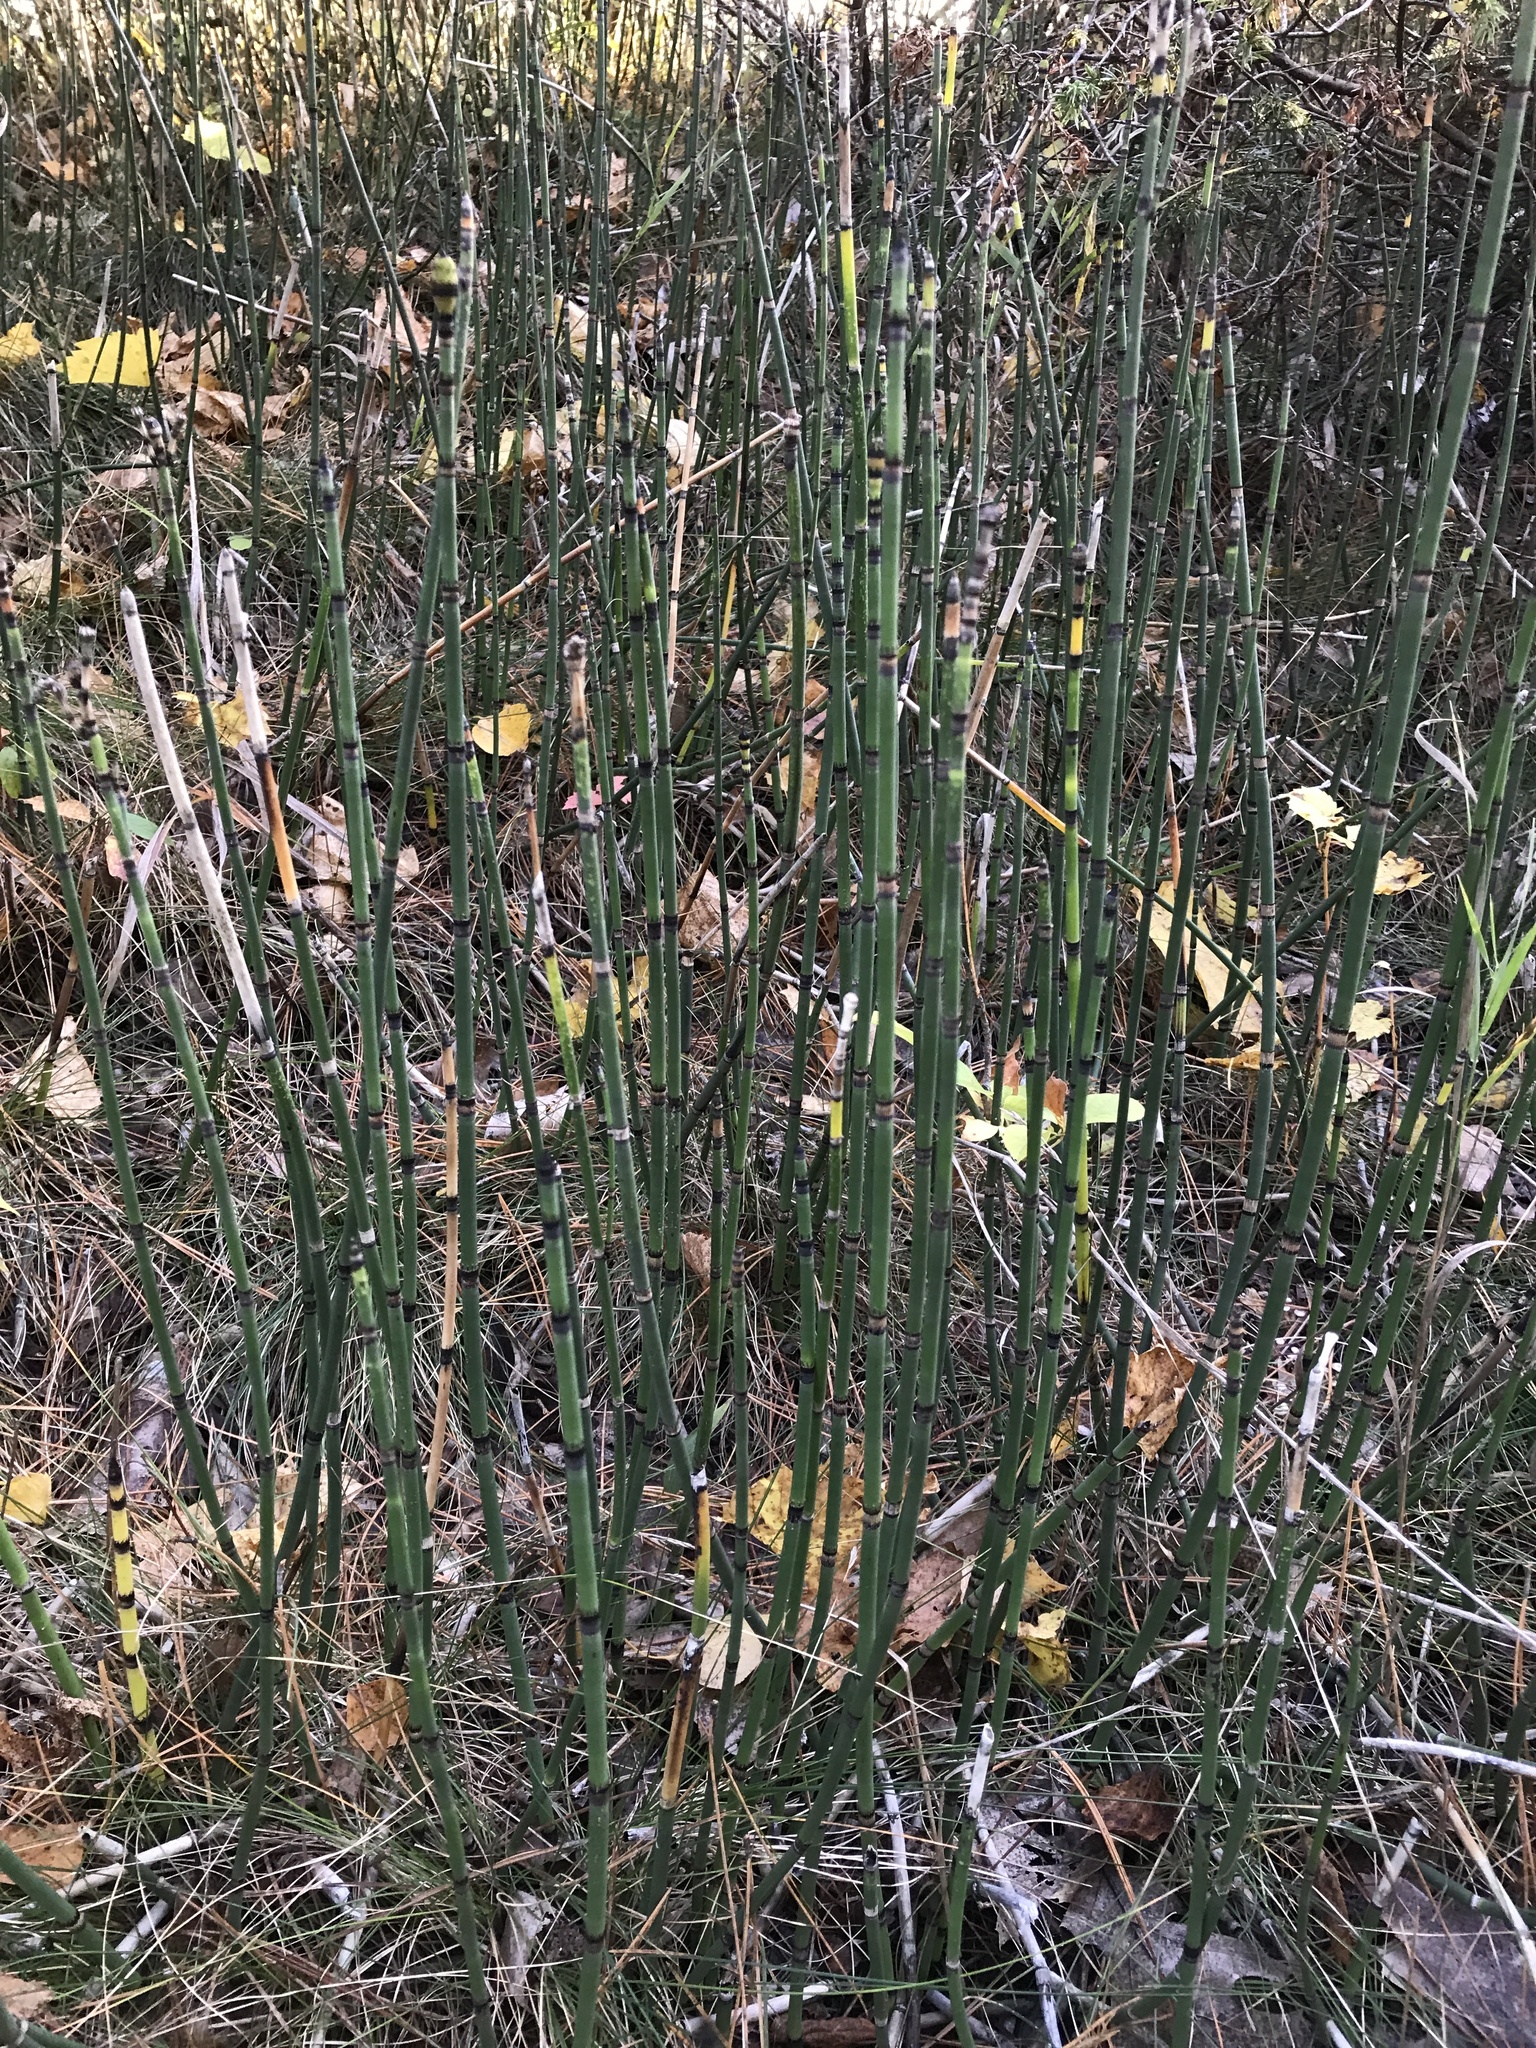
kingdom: Plantae
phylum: Tracheophyta
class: Polypodiopsida
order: Equisetales
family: Equisetaceae
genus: Equisetum
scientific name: Equisetum praealtum
